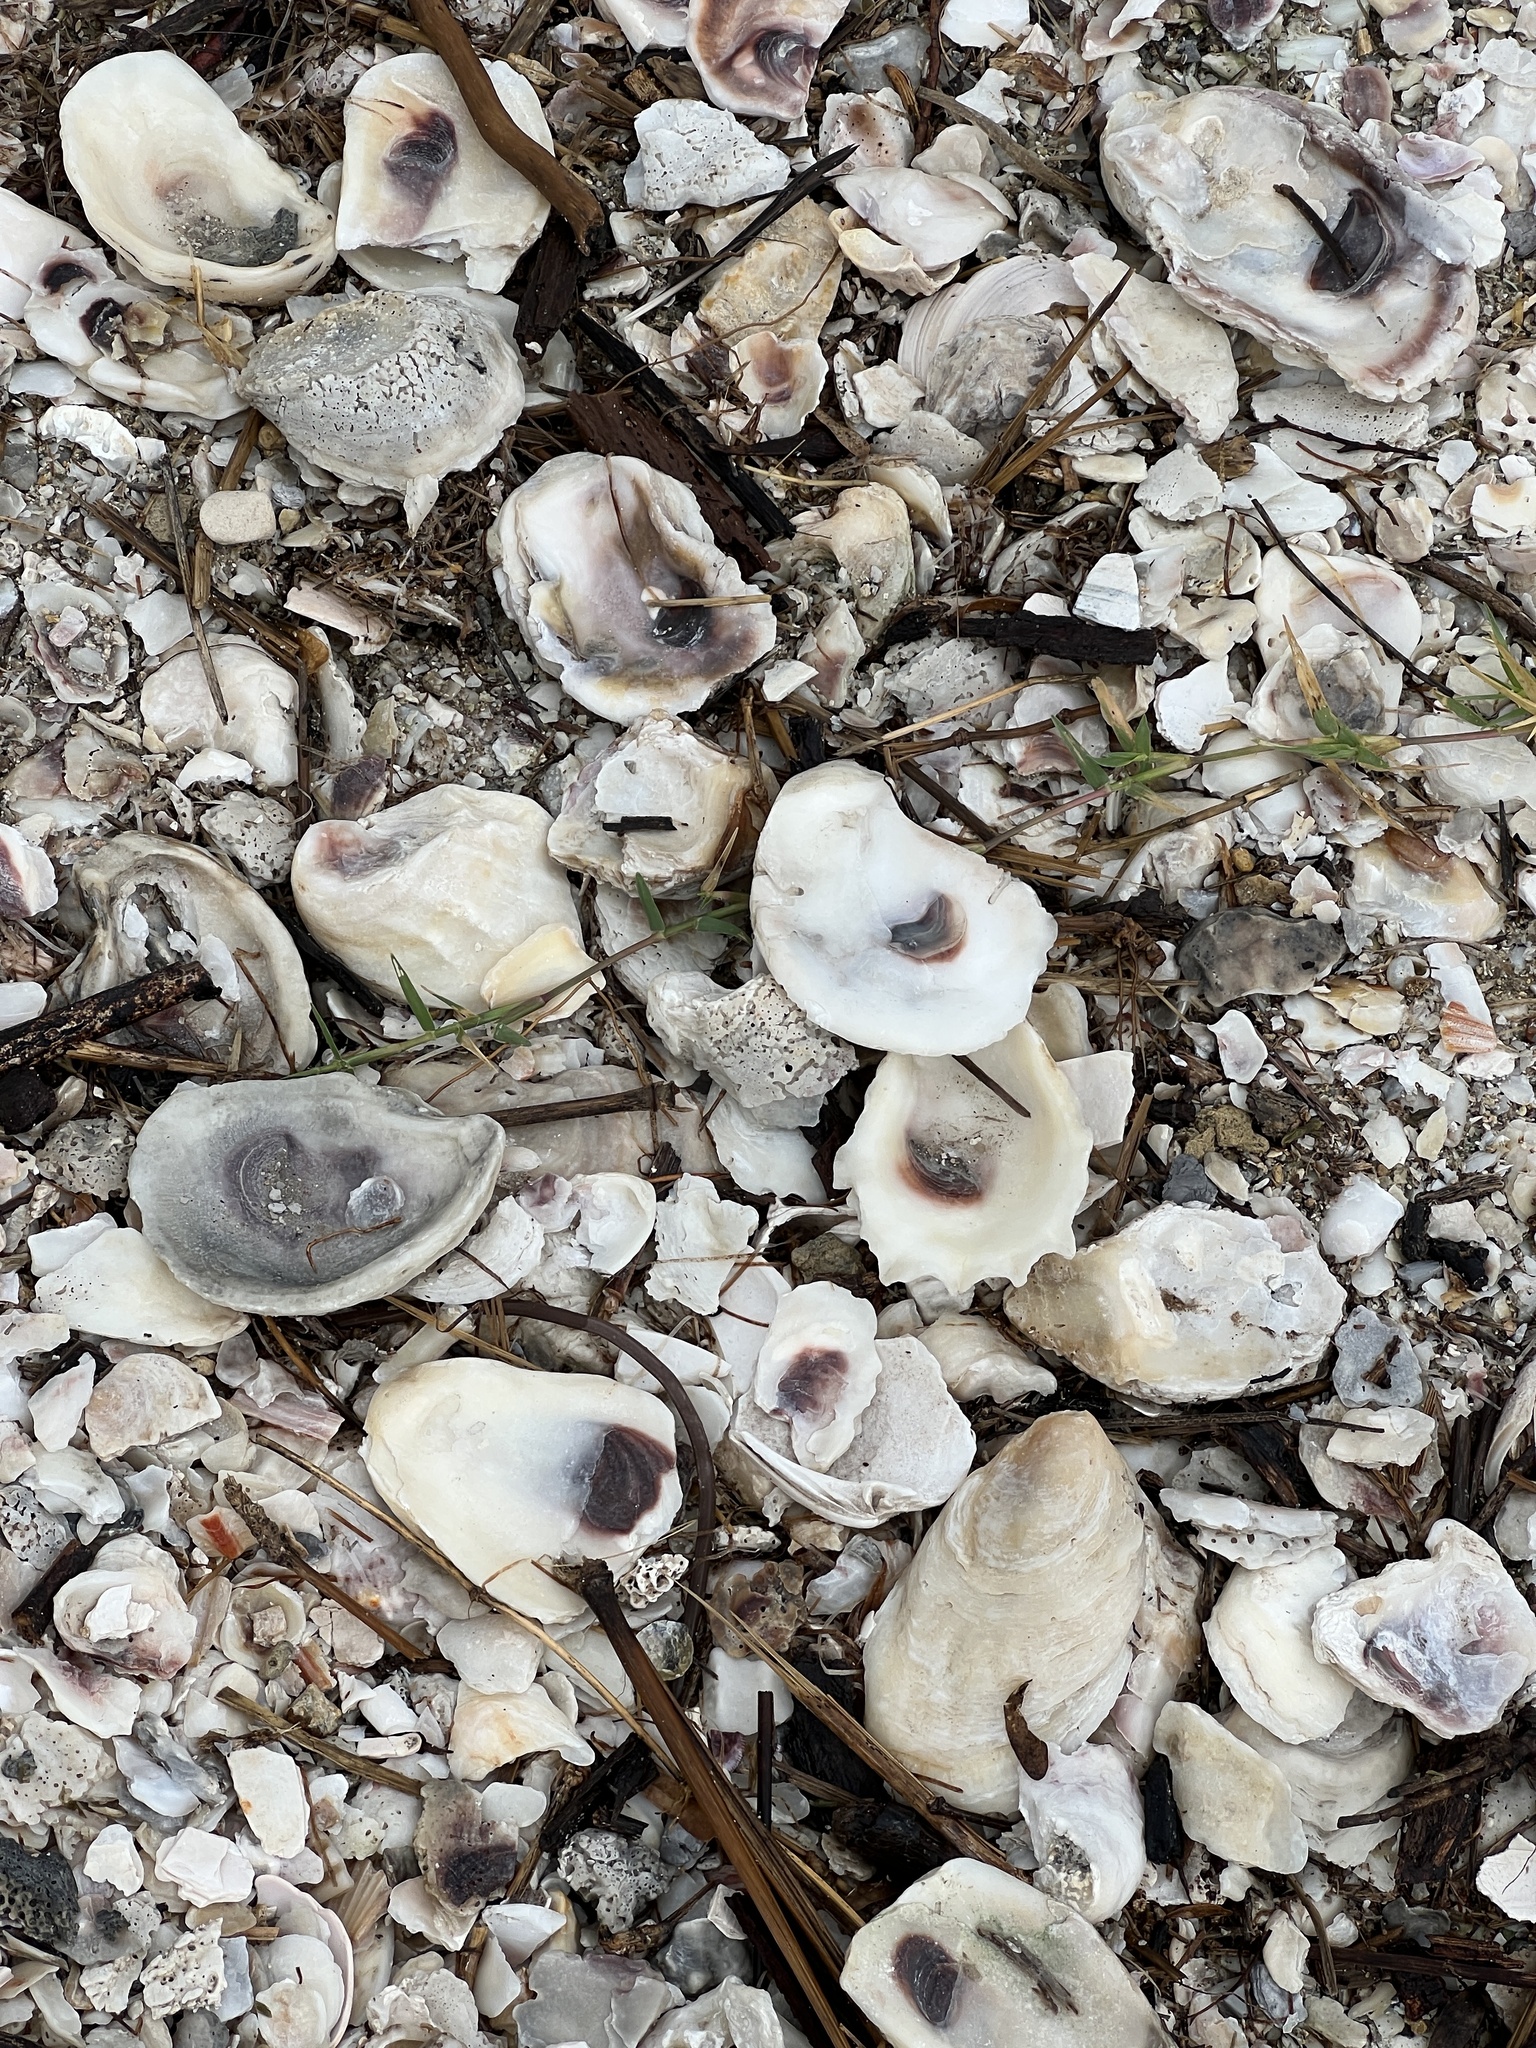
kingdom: Animalia
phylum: Mollusca
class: Bivalvia
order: Ostreida
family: Ostreidae
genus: Crassostrea
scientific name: Crassostrea virginica
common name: American oyster
